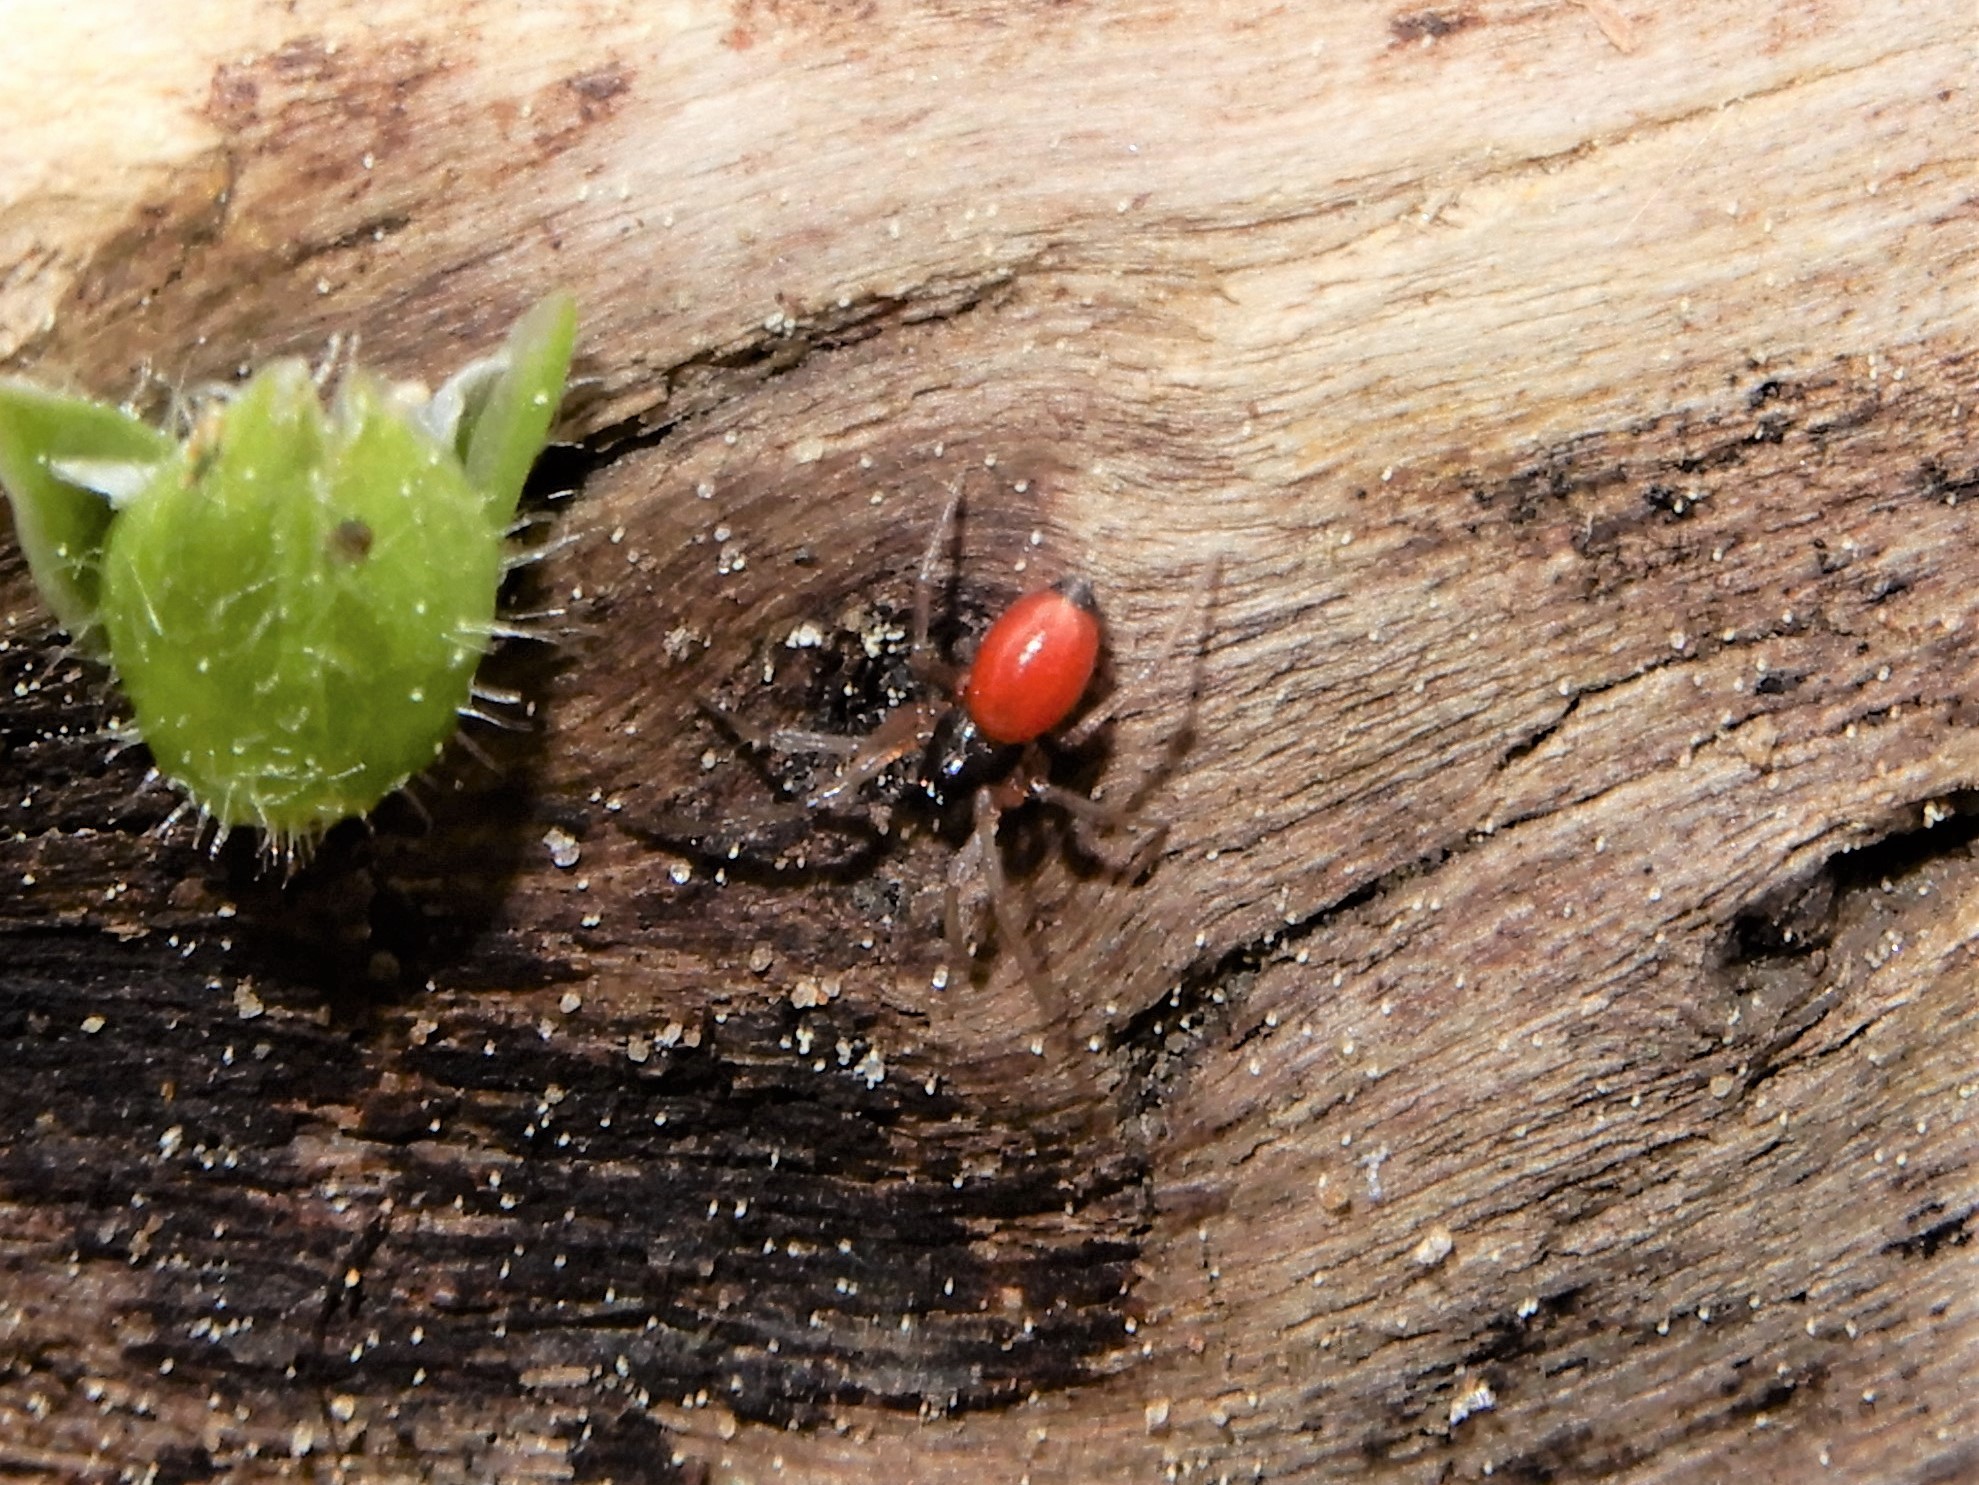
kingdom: Animalia
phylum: Arthropoda
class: Arachnida
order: Araneae
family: Linyphiidae
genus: Ostearius
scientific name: Ostearius melanopygius
